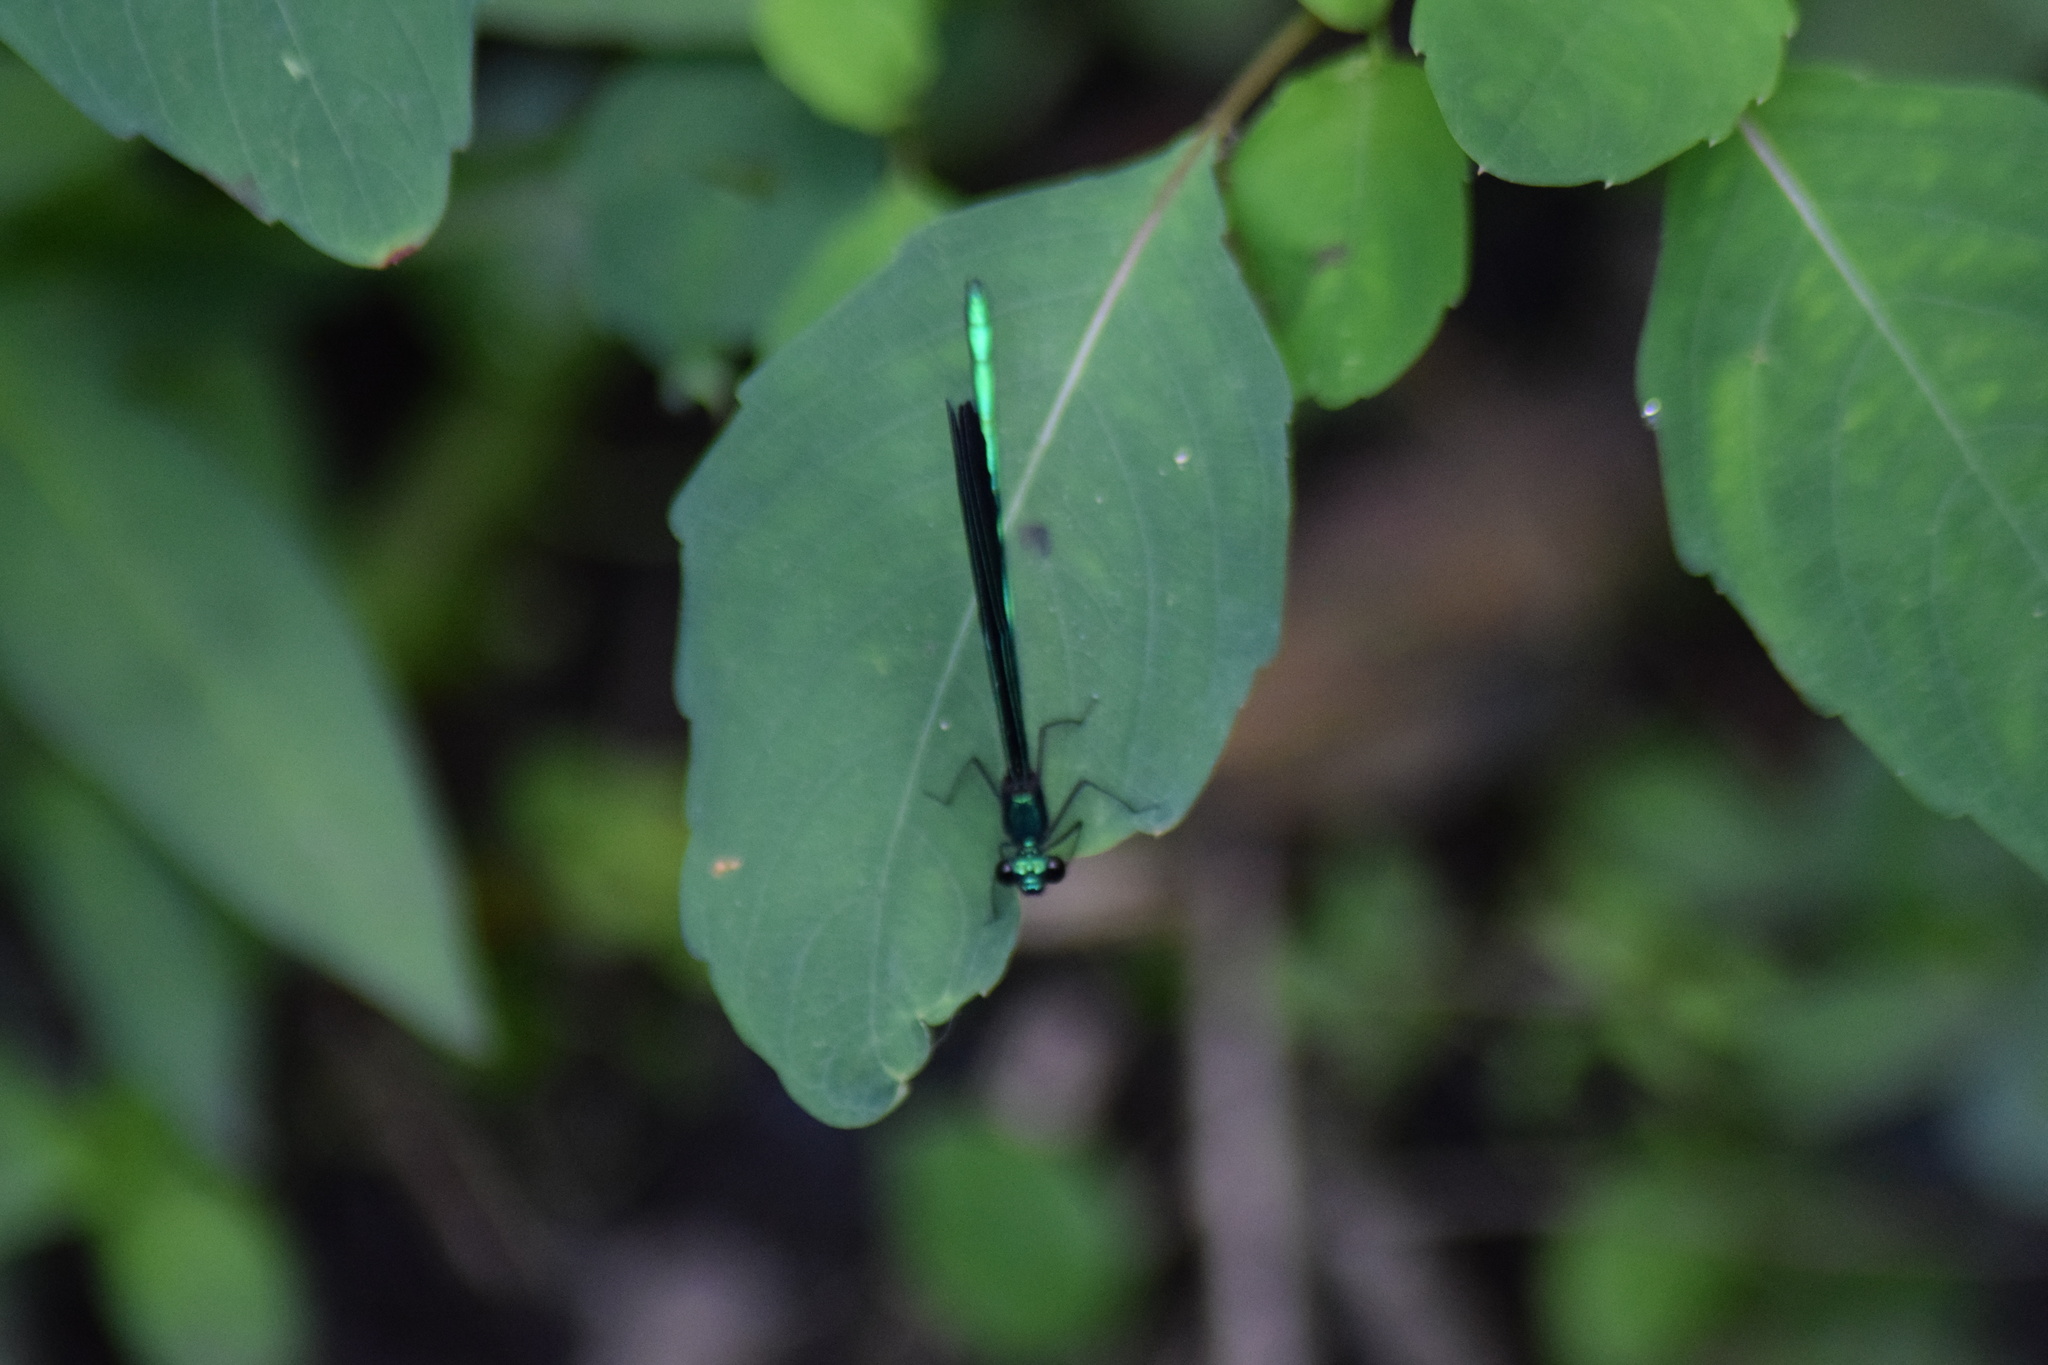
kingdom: Animalia
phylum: Arthropoda
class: Insecta
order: Odonata
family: Calopterygidae
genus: Calopteryx
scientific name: Calopteryx maculata
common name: Ebony jewelwing
